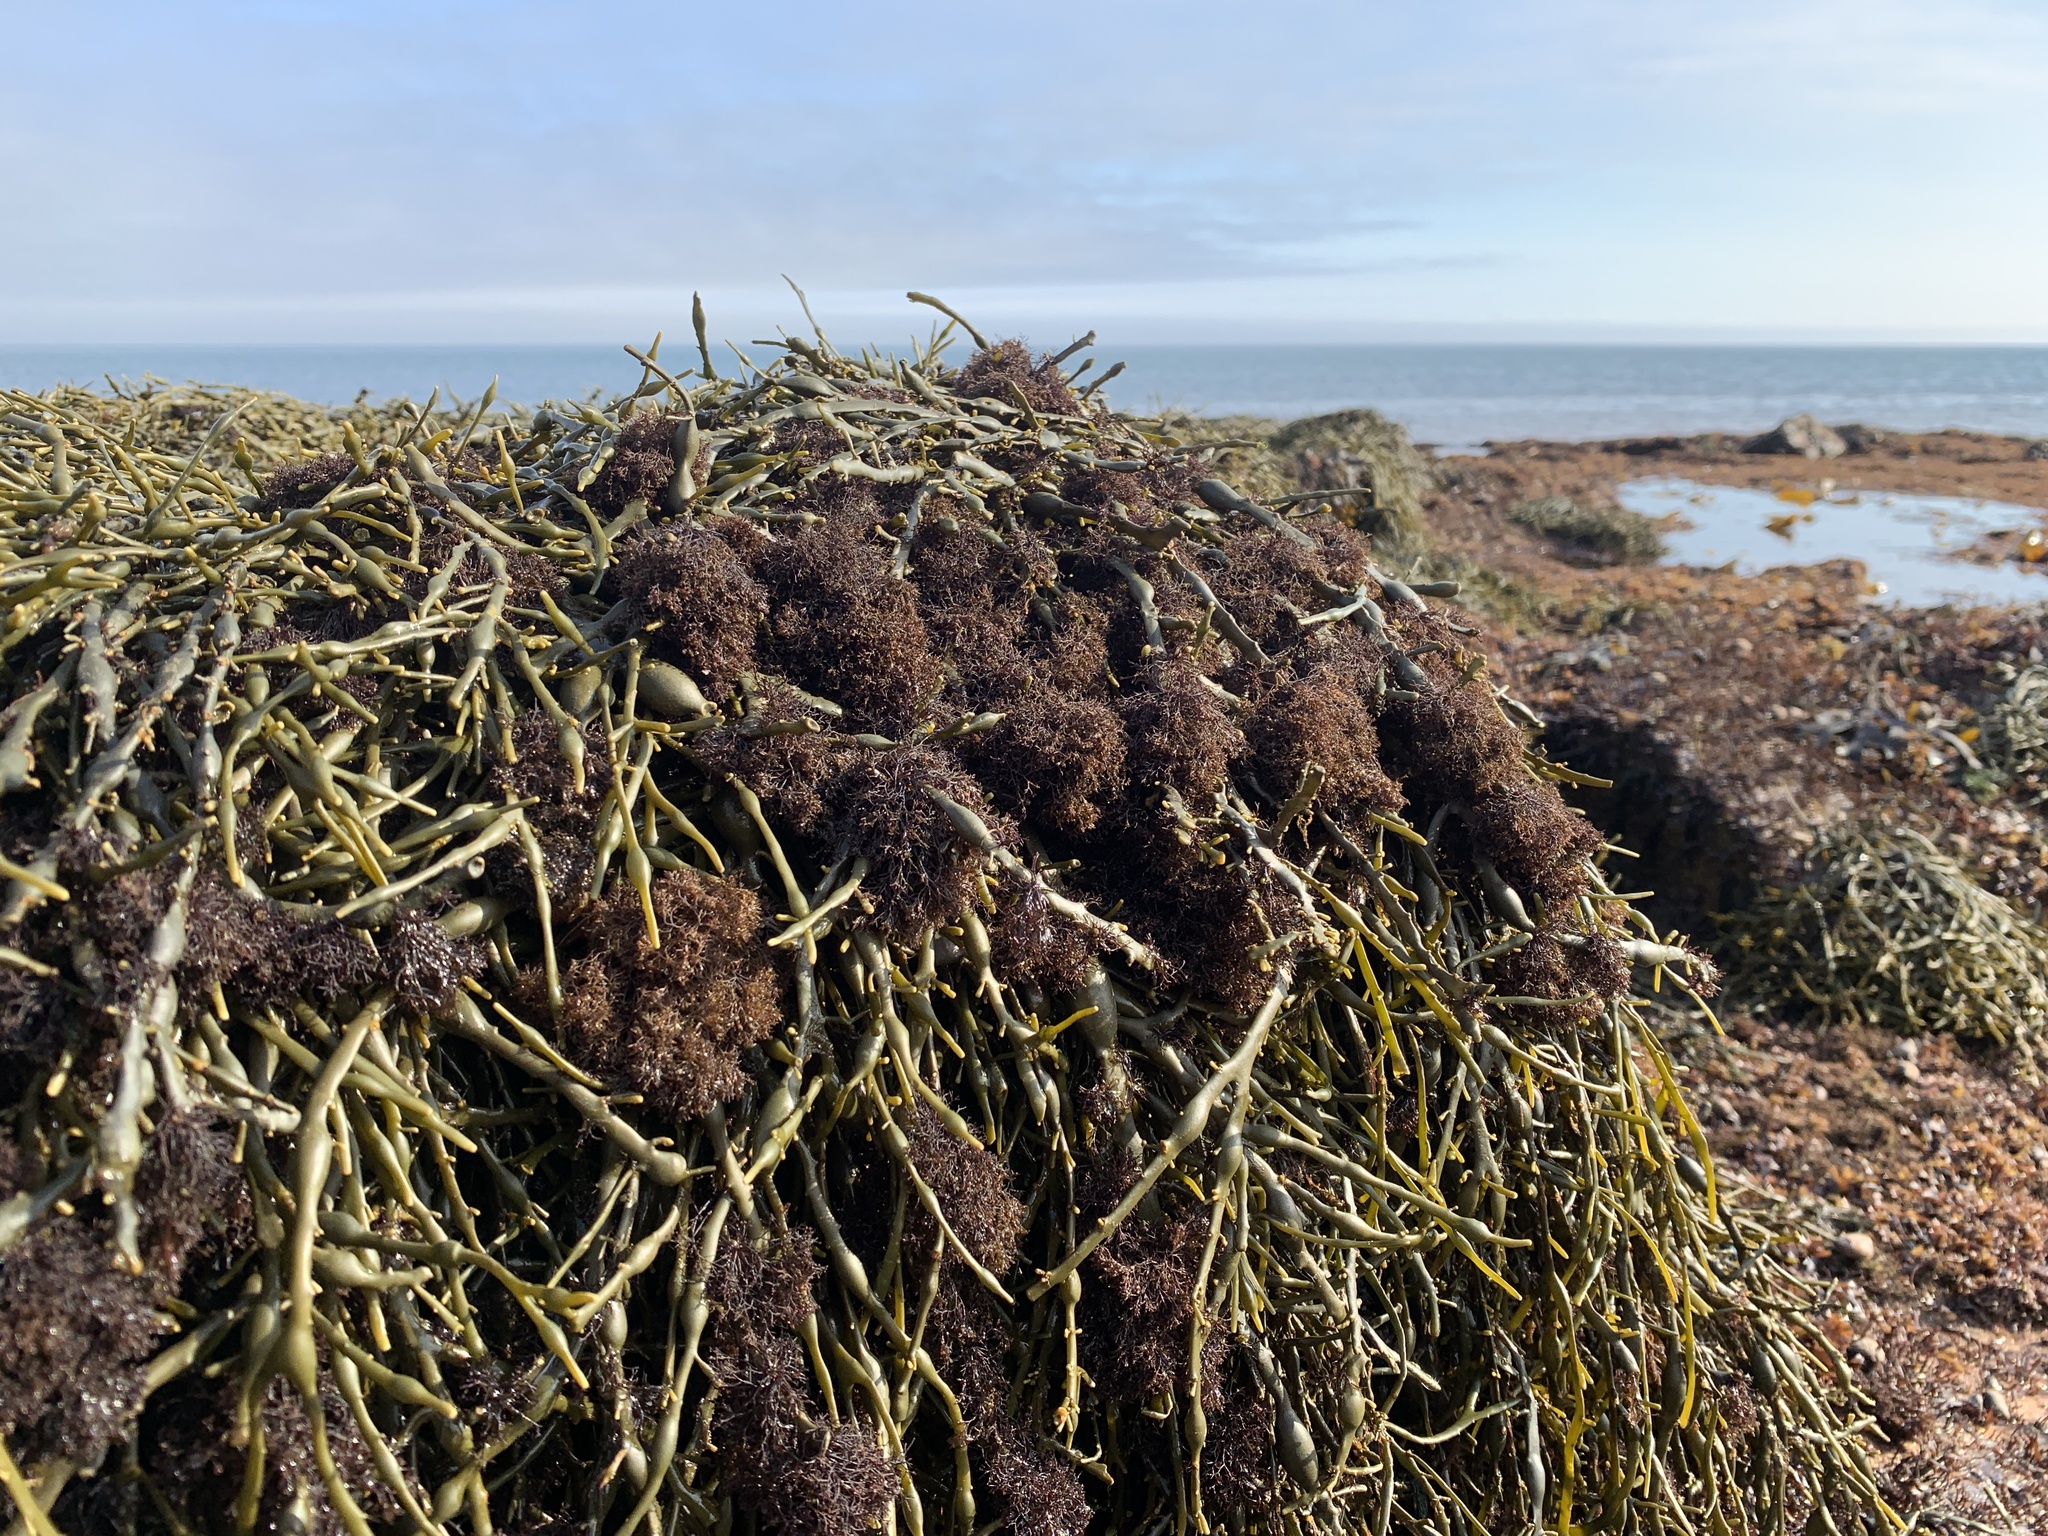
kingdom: Plantae
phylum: Rhodophyta
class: Florideophyceae
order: Ceramiales
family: Rhodomelaceae
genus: Vertebrata
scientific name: Vertebrata lanosa
